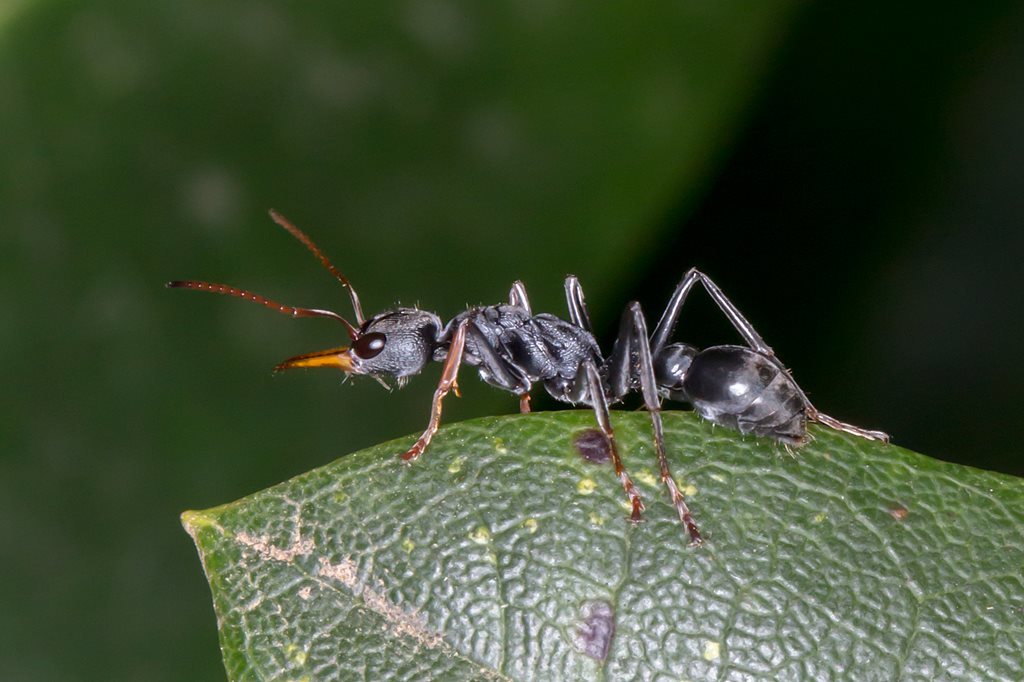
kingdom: Animalia
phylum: Arthropoda
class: Insecta
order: Hymenoptera
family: Formicidae
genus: Myrmecia
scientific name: Myrmecia pilosula
